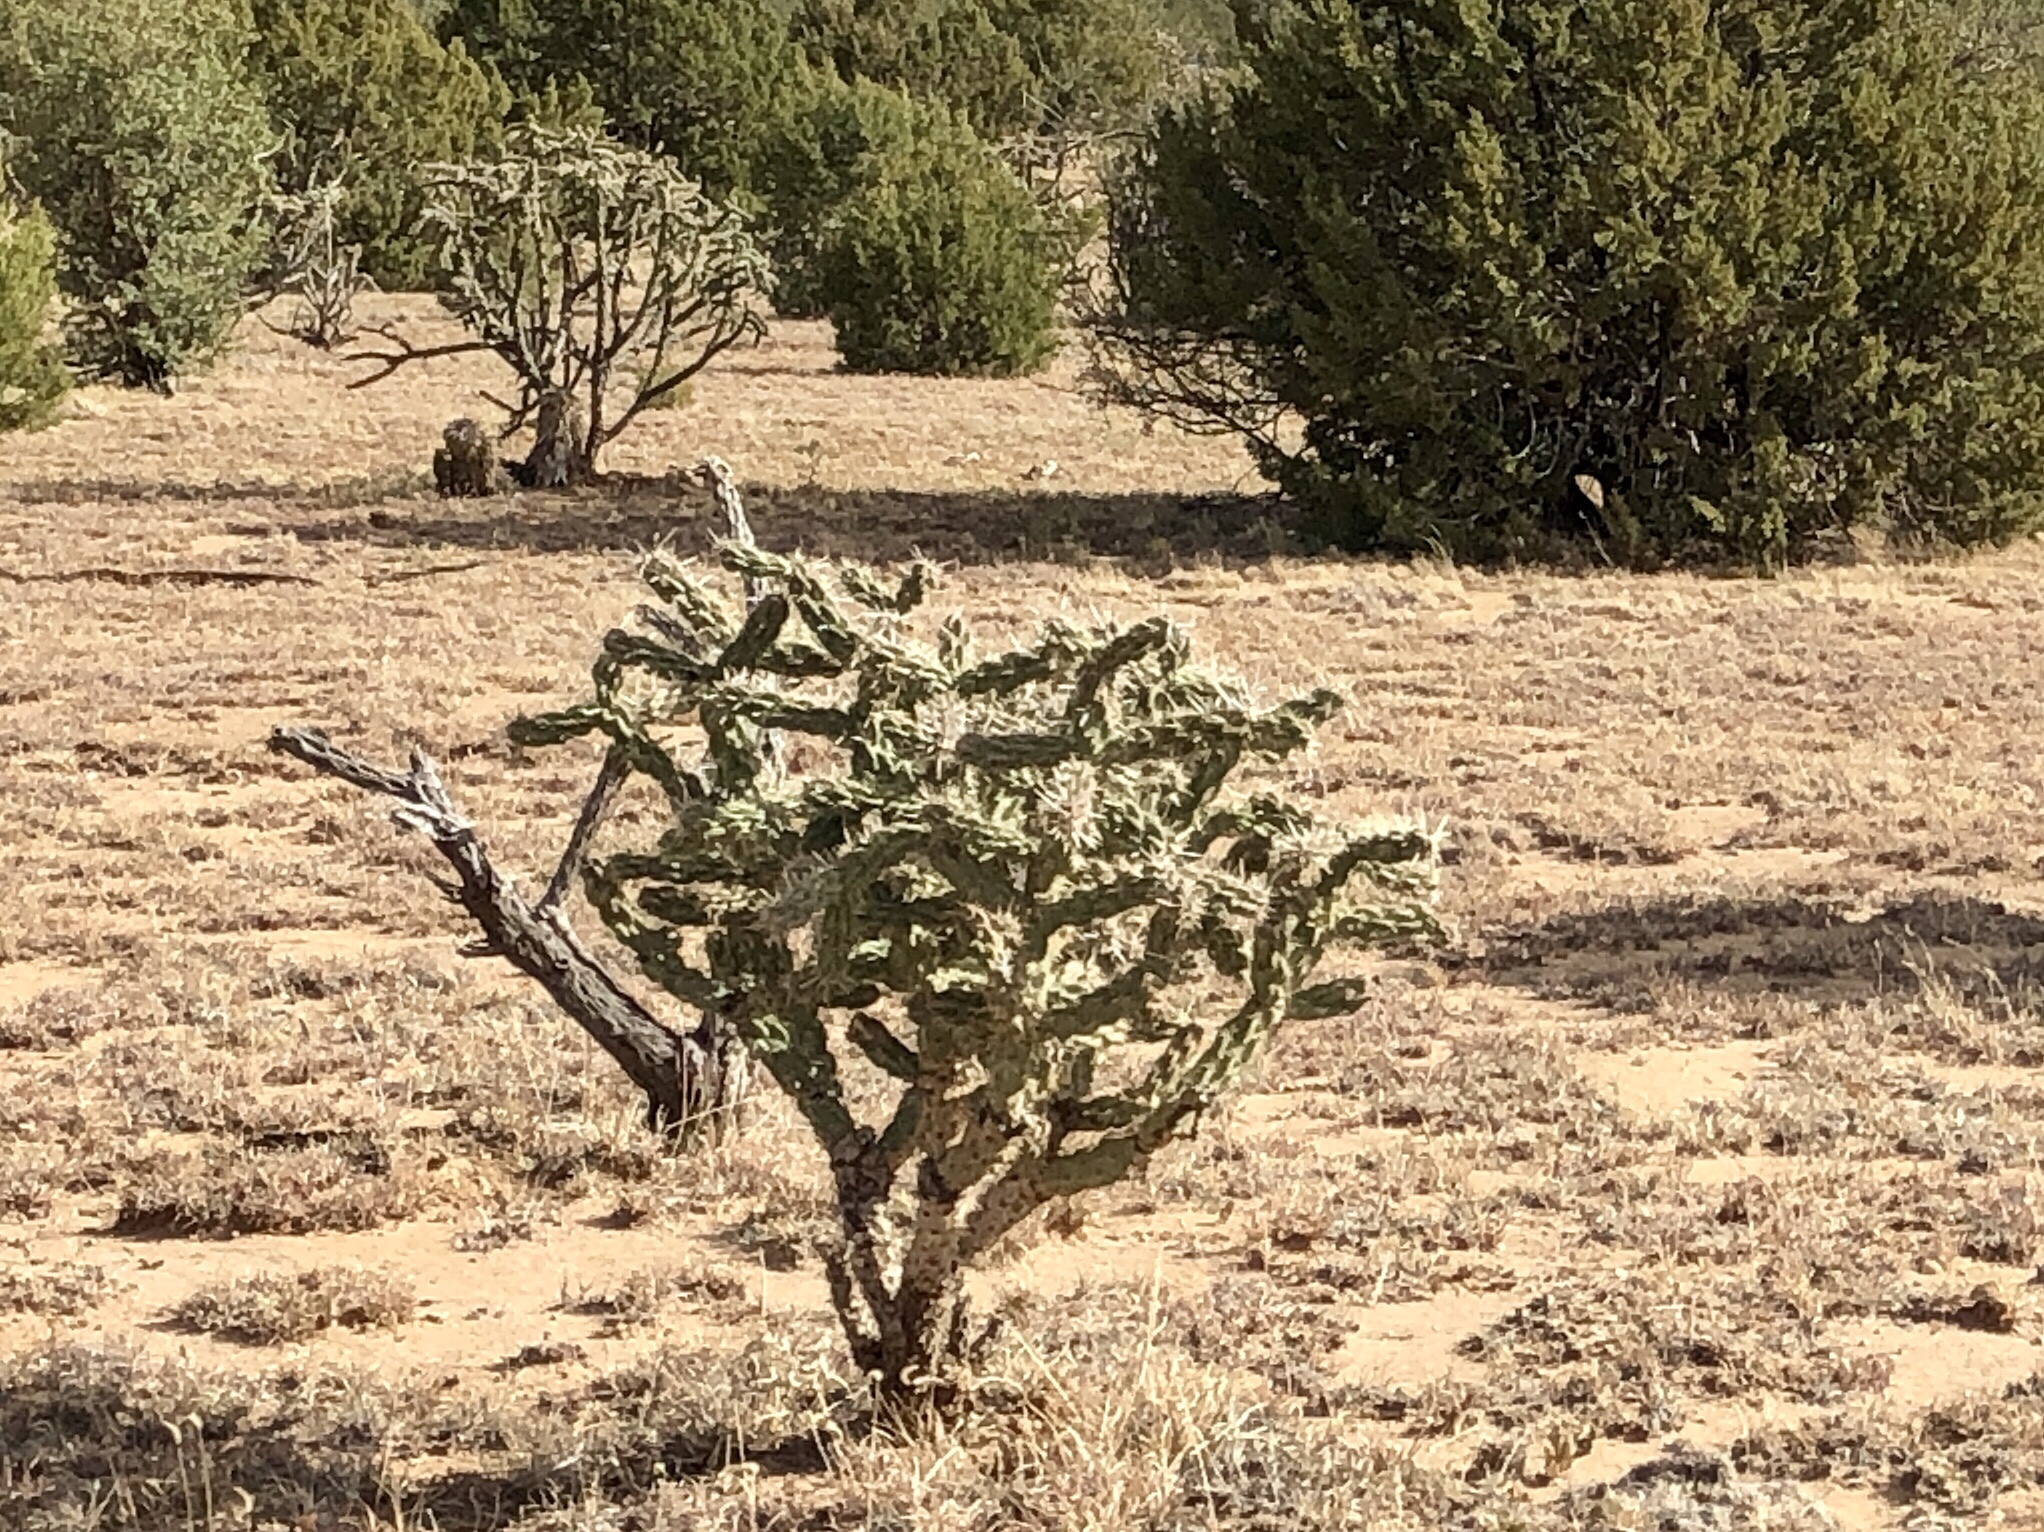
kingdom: Plantae
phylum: Tracheophyta
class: Magnoliopsida
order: Caryophyllales
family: Cactaceae
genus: Cylindropuntia
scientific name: Cylindropuntia imbricata
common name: Candelabrum cactus
